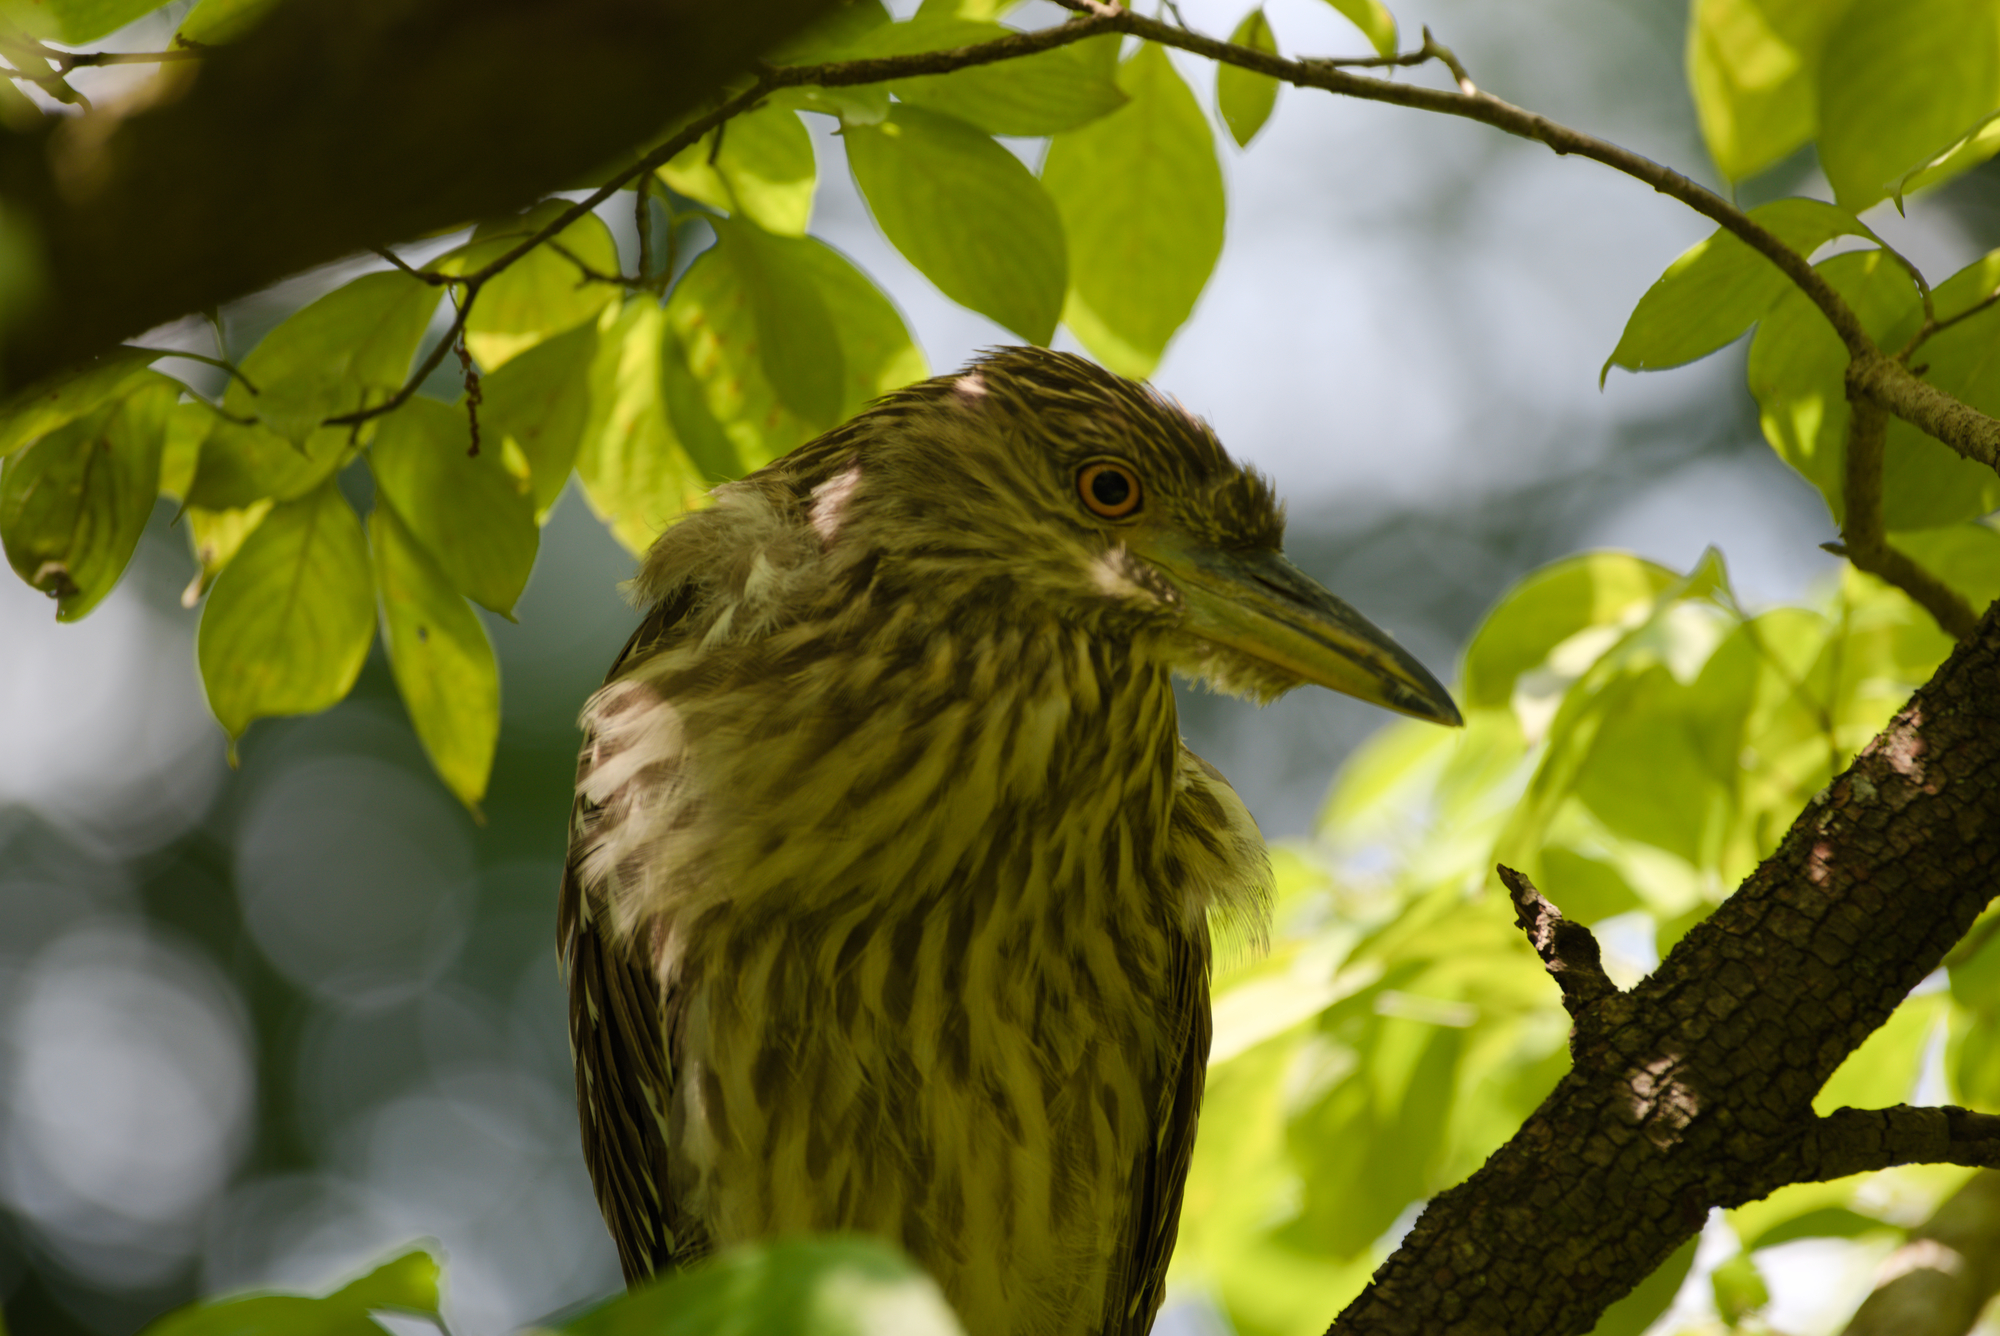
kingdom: Animalia
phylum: Chordata
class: Aves
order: Pelecaniformes
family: Ardeidae
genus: Nycticorax
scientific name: Nycticorax nycticorax
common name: Black-crowned night heron
